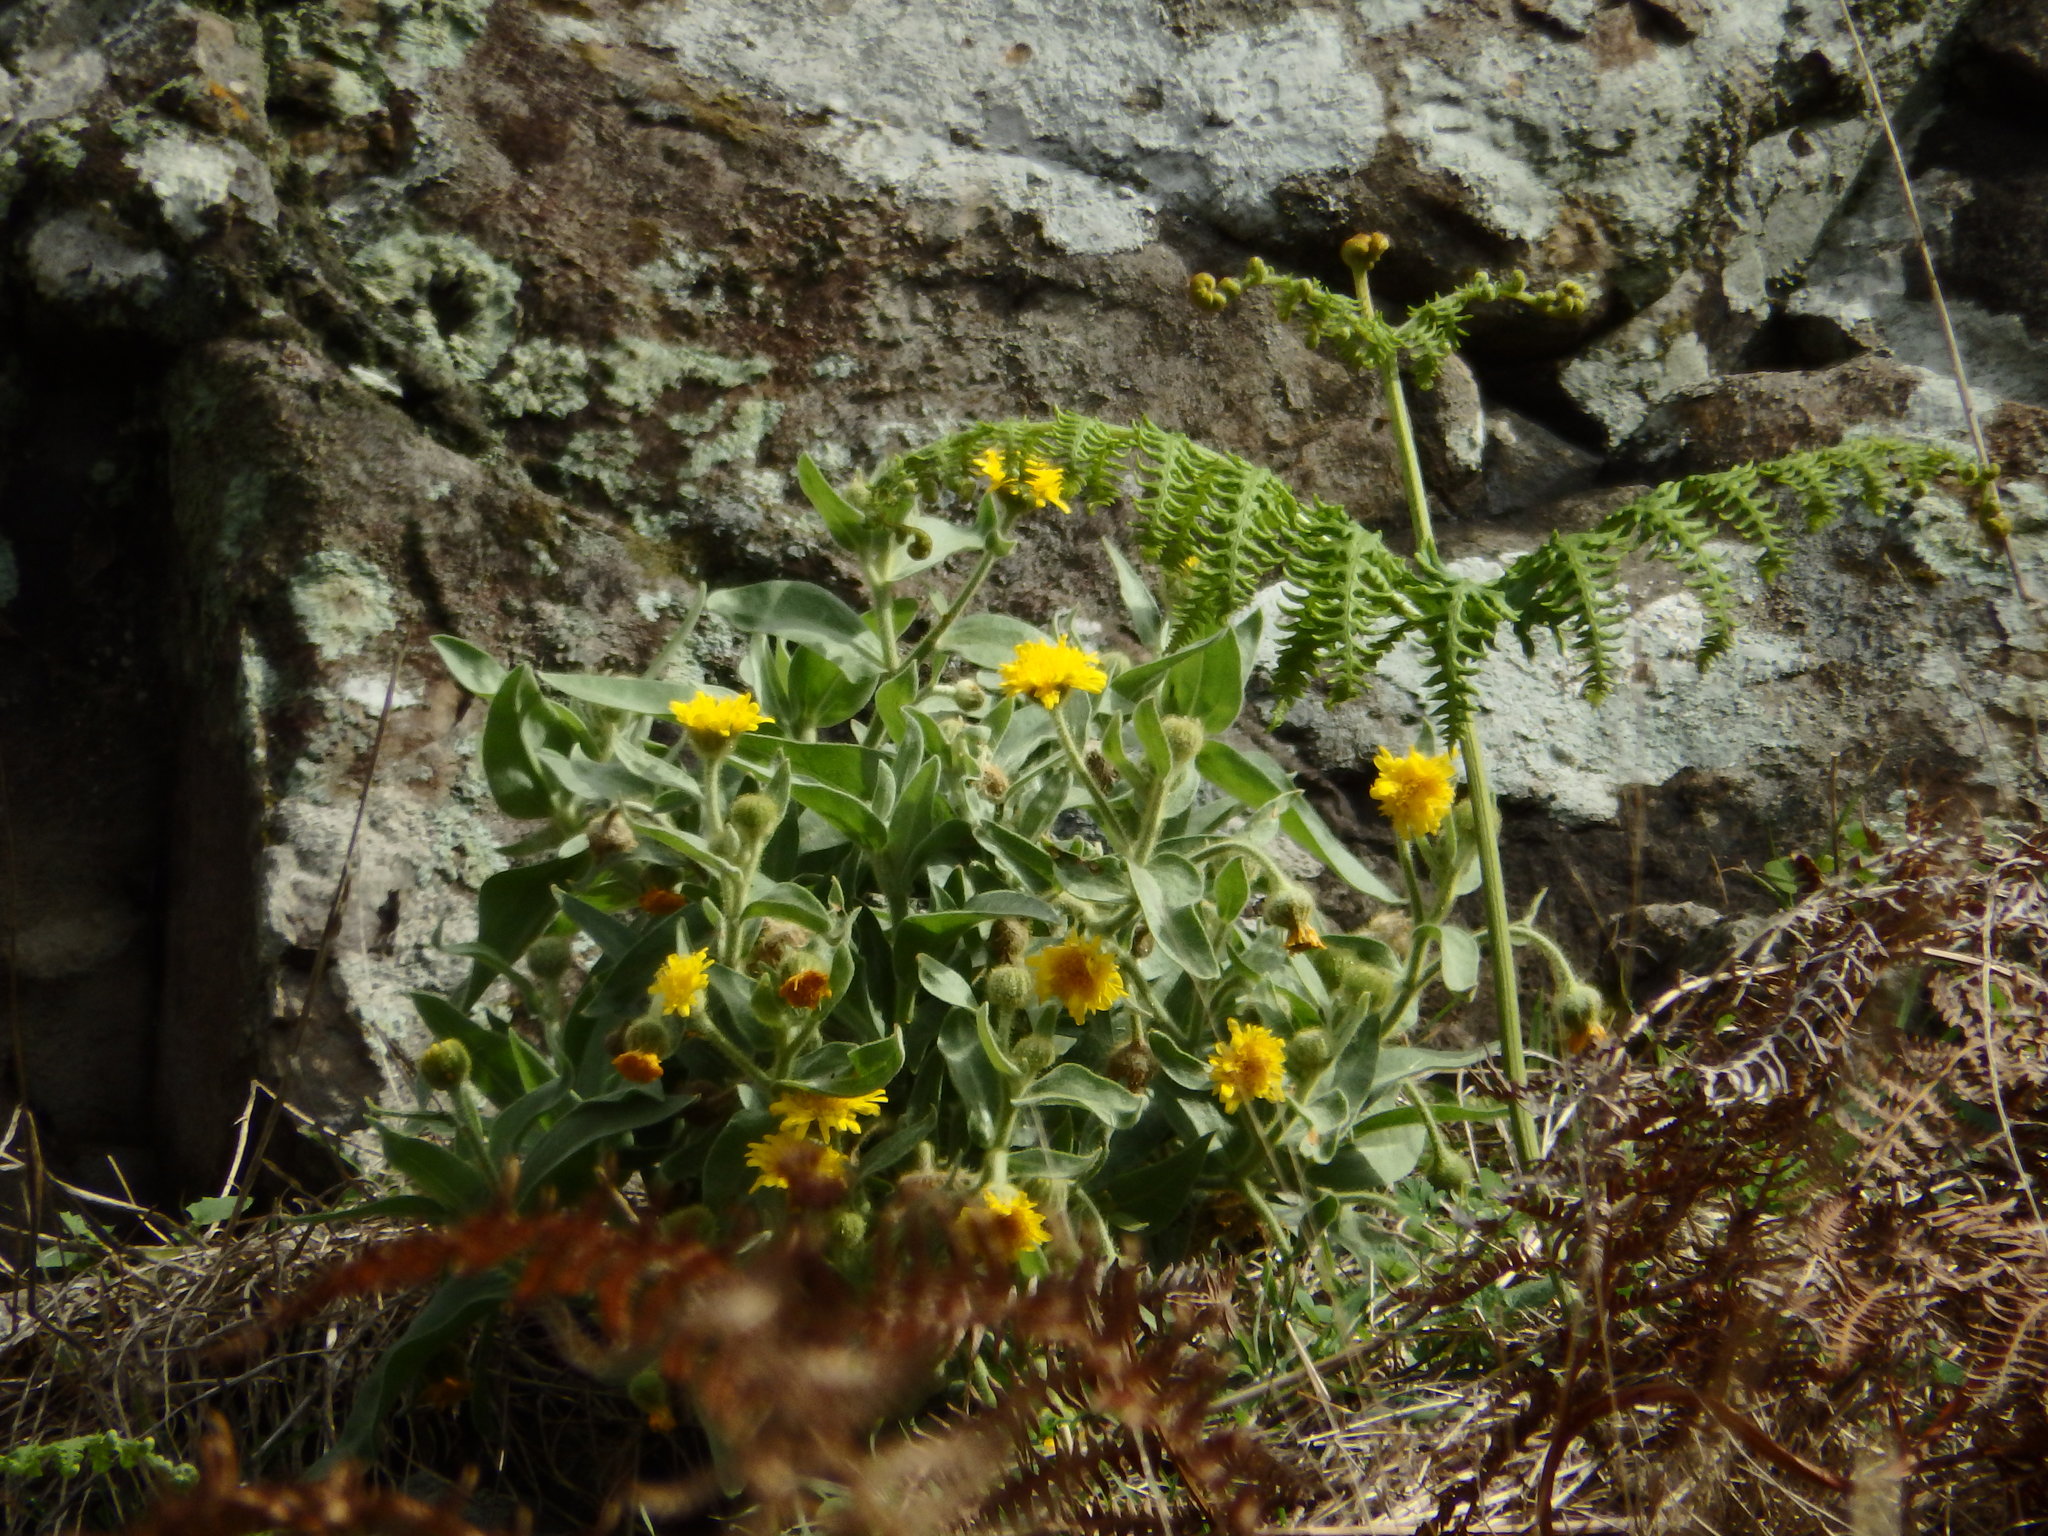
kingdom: Plantae
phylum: Tracheophyta
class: Magnoliopsida
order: Asterales
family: Asteraceae
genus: Andryala
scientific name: Andryala glandulosa
